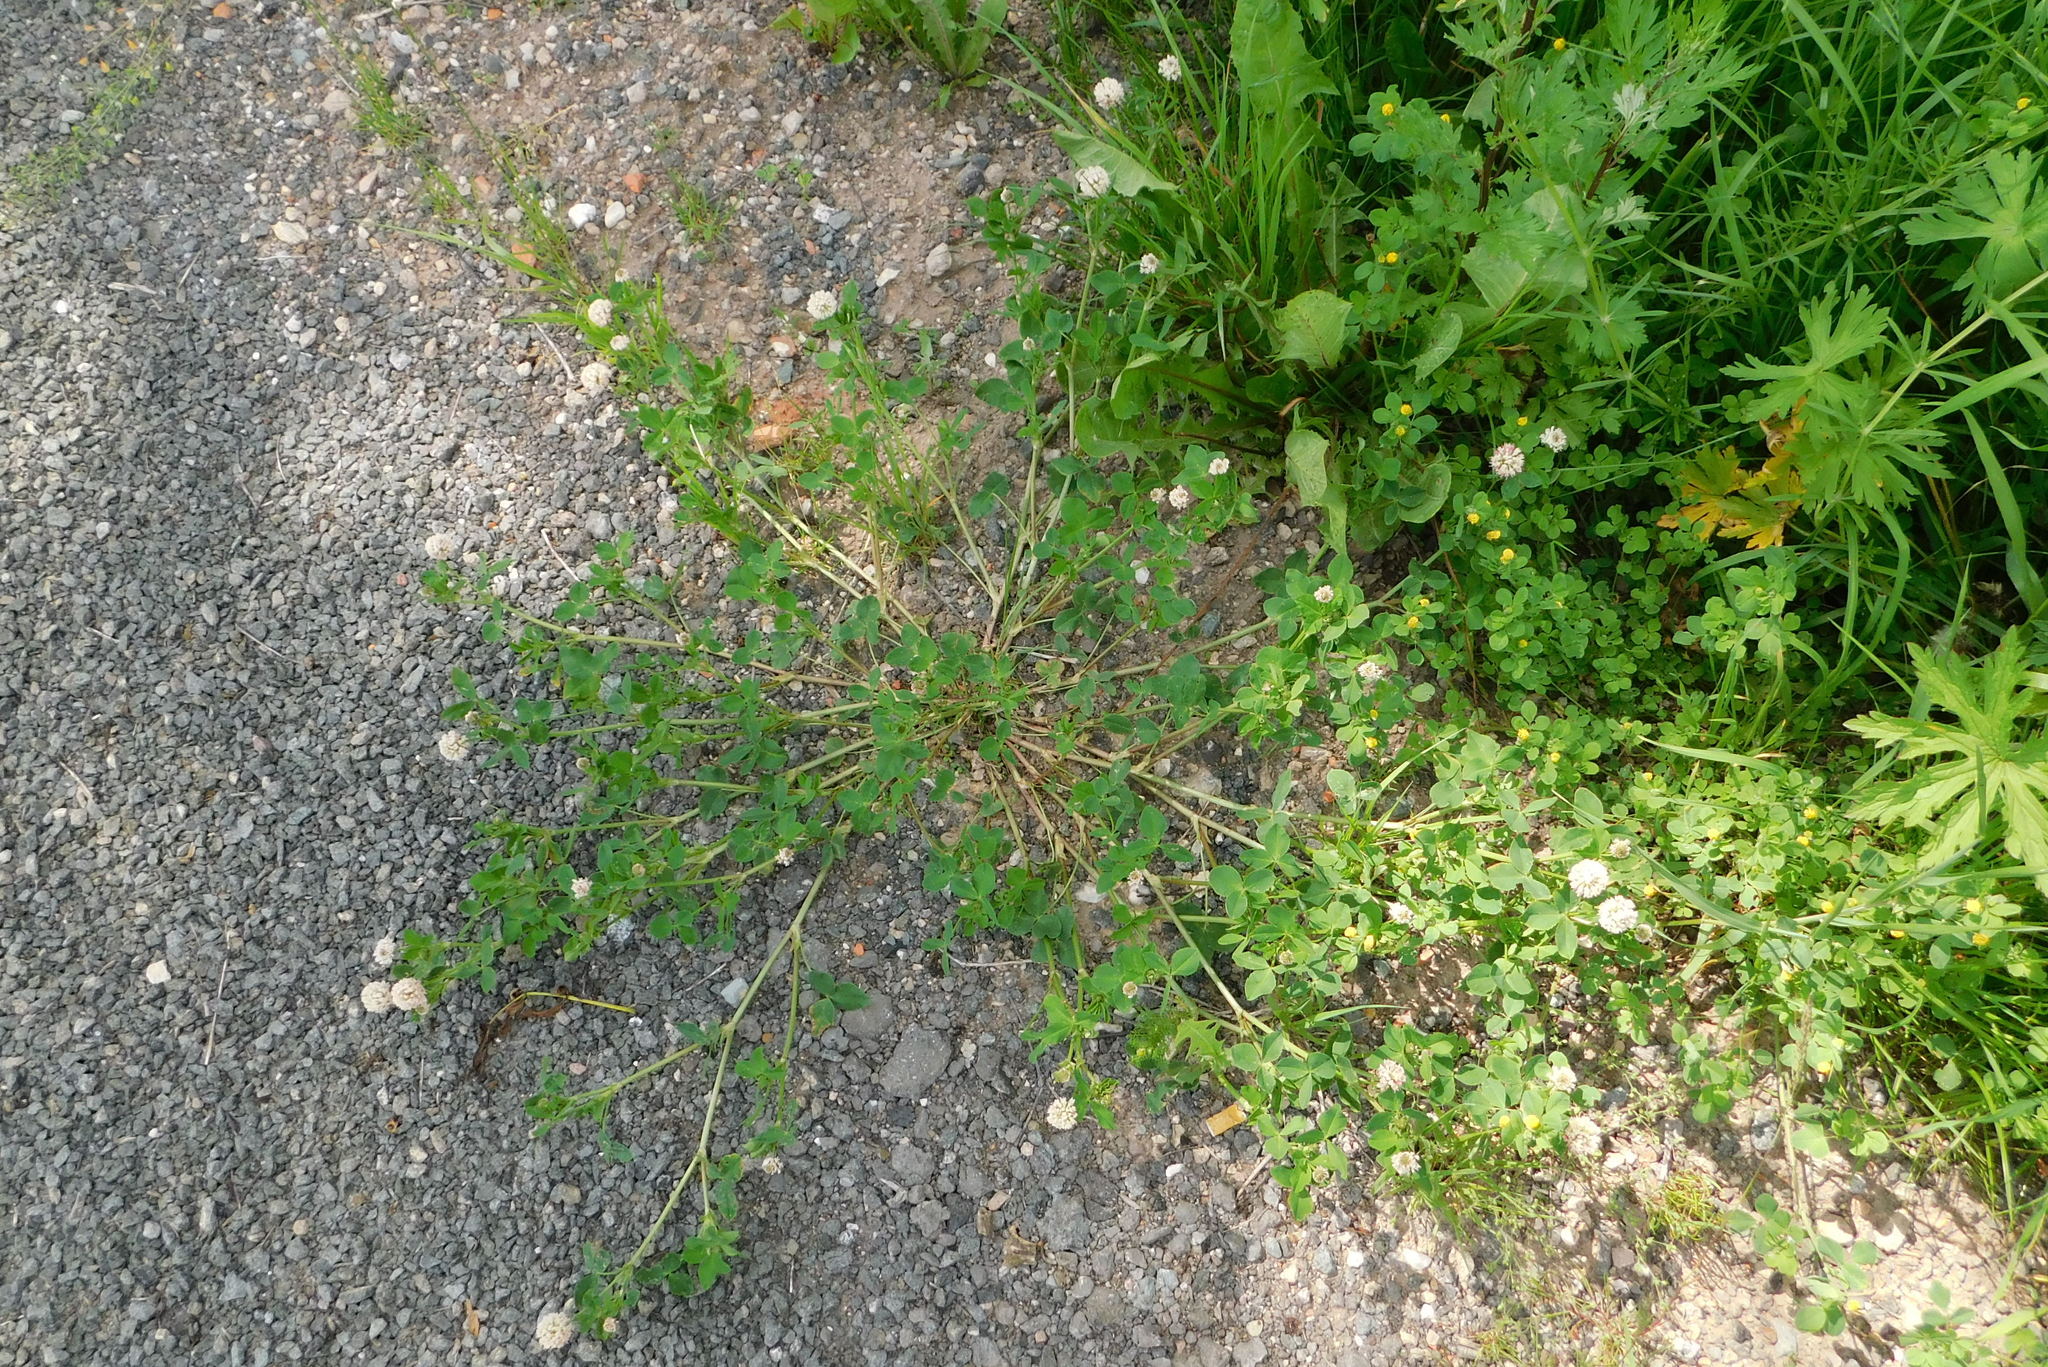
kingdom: Plantae
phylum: Tracheophyta
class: Magnoliopsida
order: Fabales
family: Fabaceae
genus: Trifolium
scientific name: Trifolium hybridum
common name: Alsike clover
